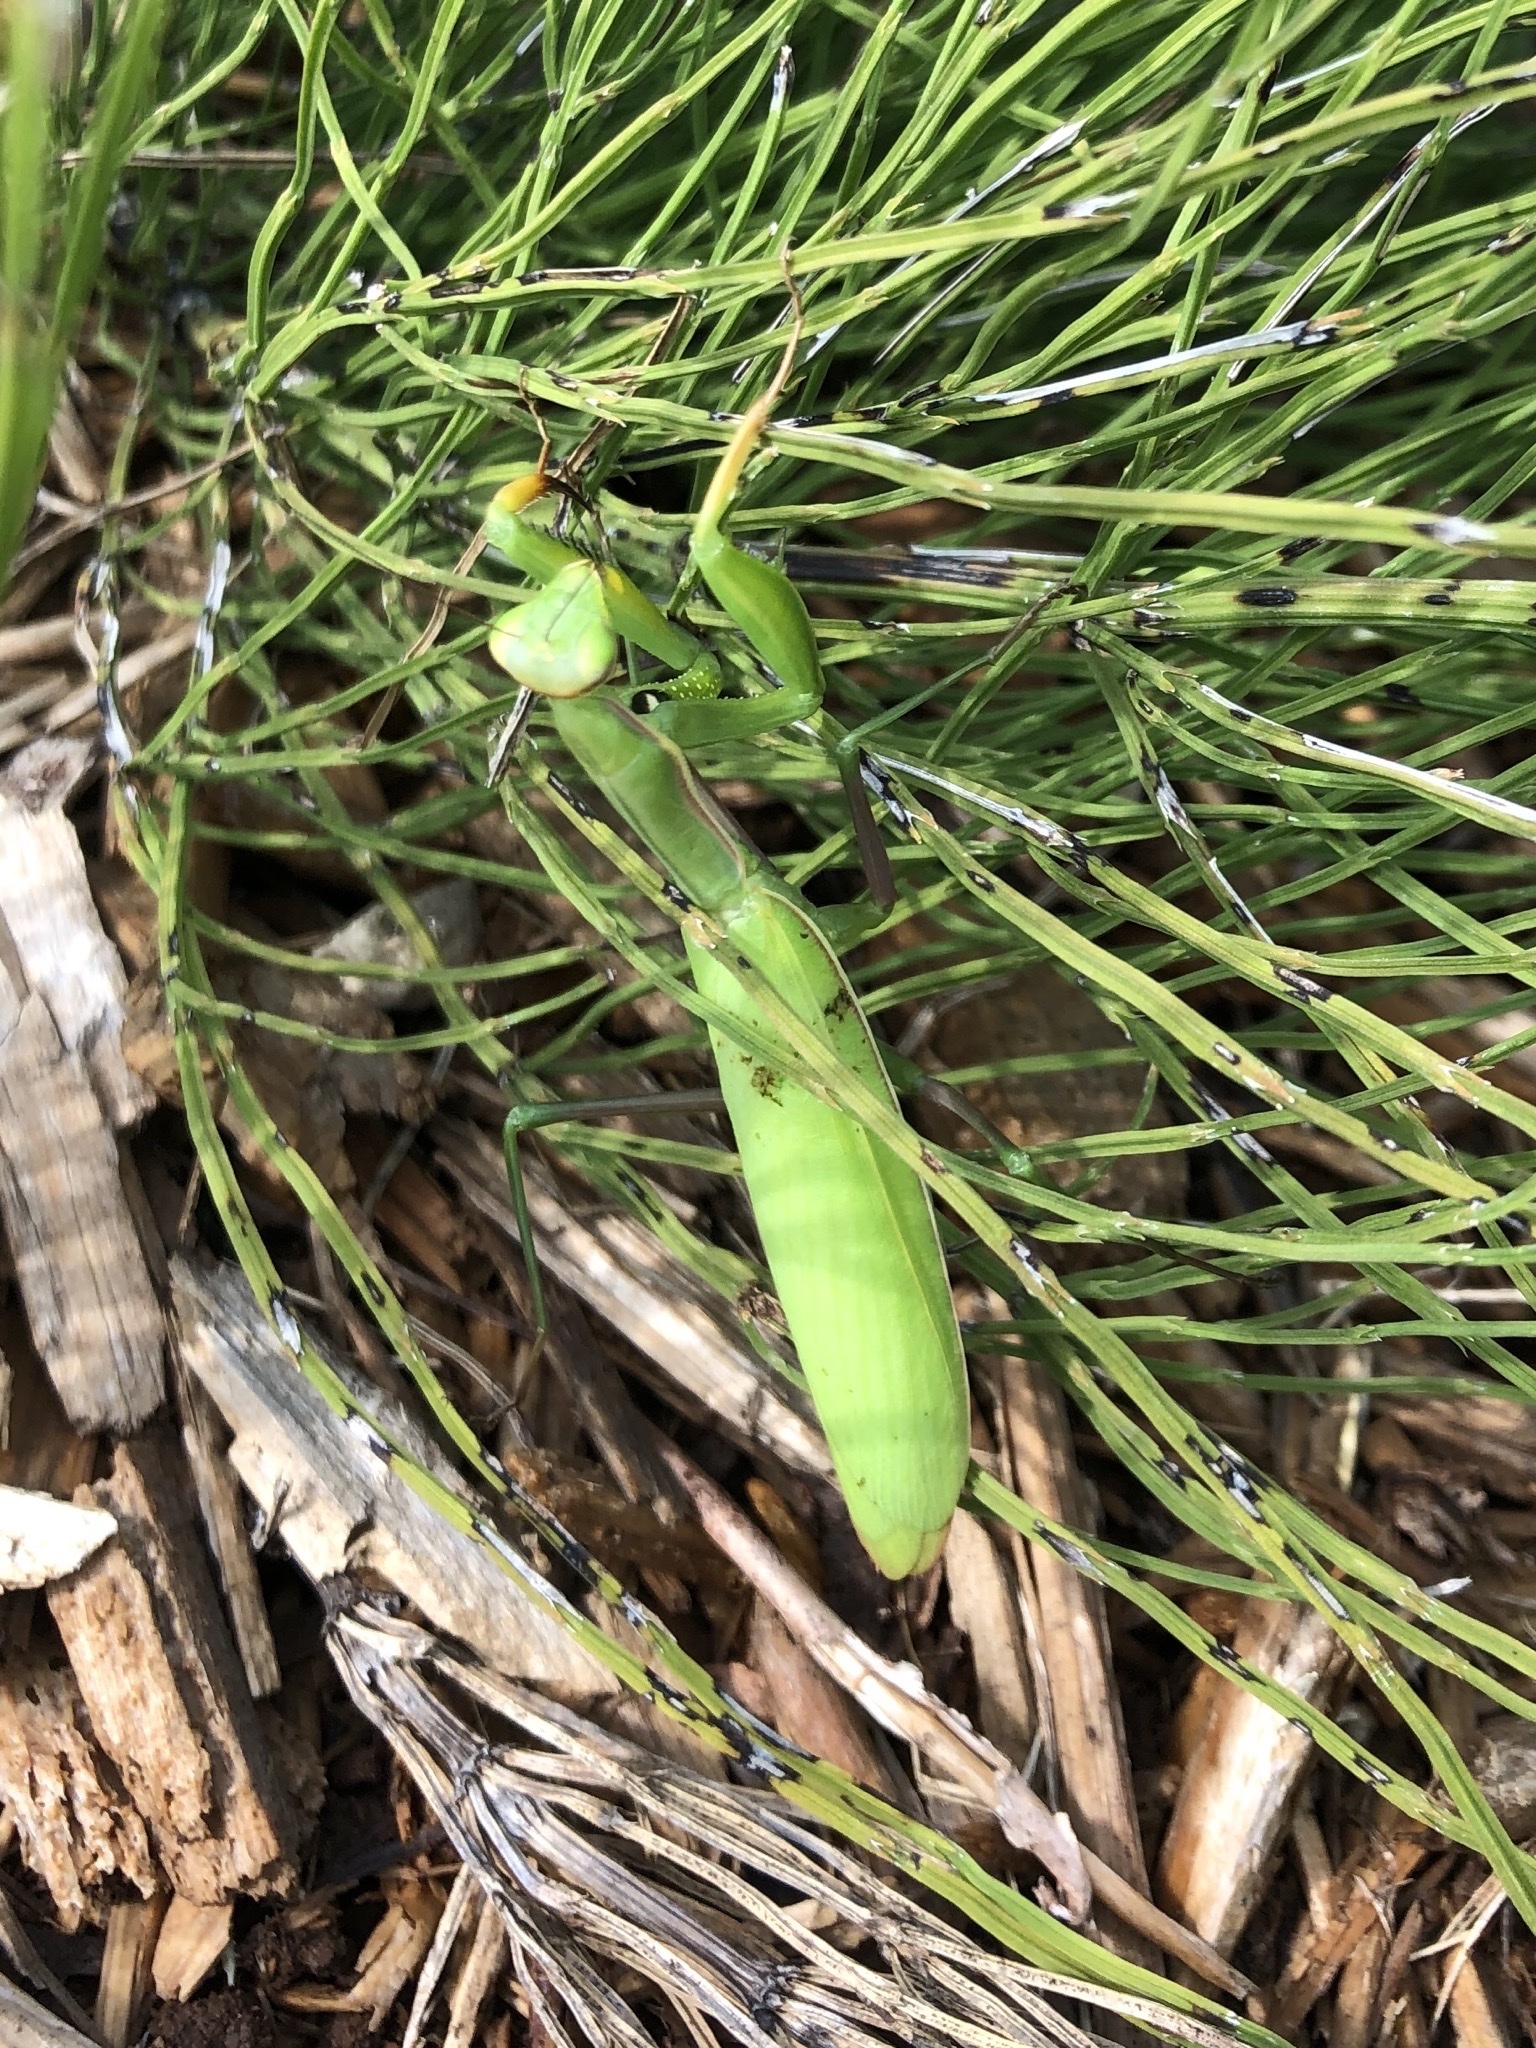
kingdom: Animalia
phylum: Arthropoda
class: Insecta
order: Mantodea
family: Mantidae
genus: Mantis
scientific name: Mantis religiosa
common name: Praying mantis
